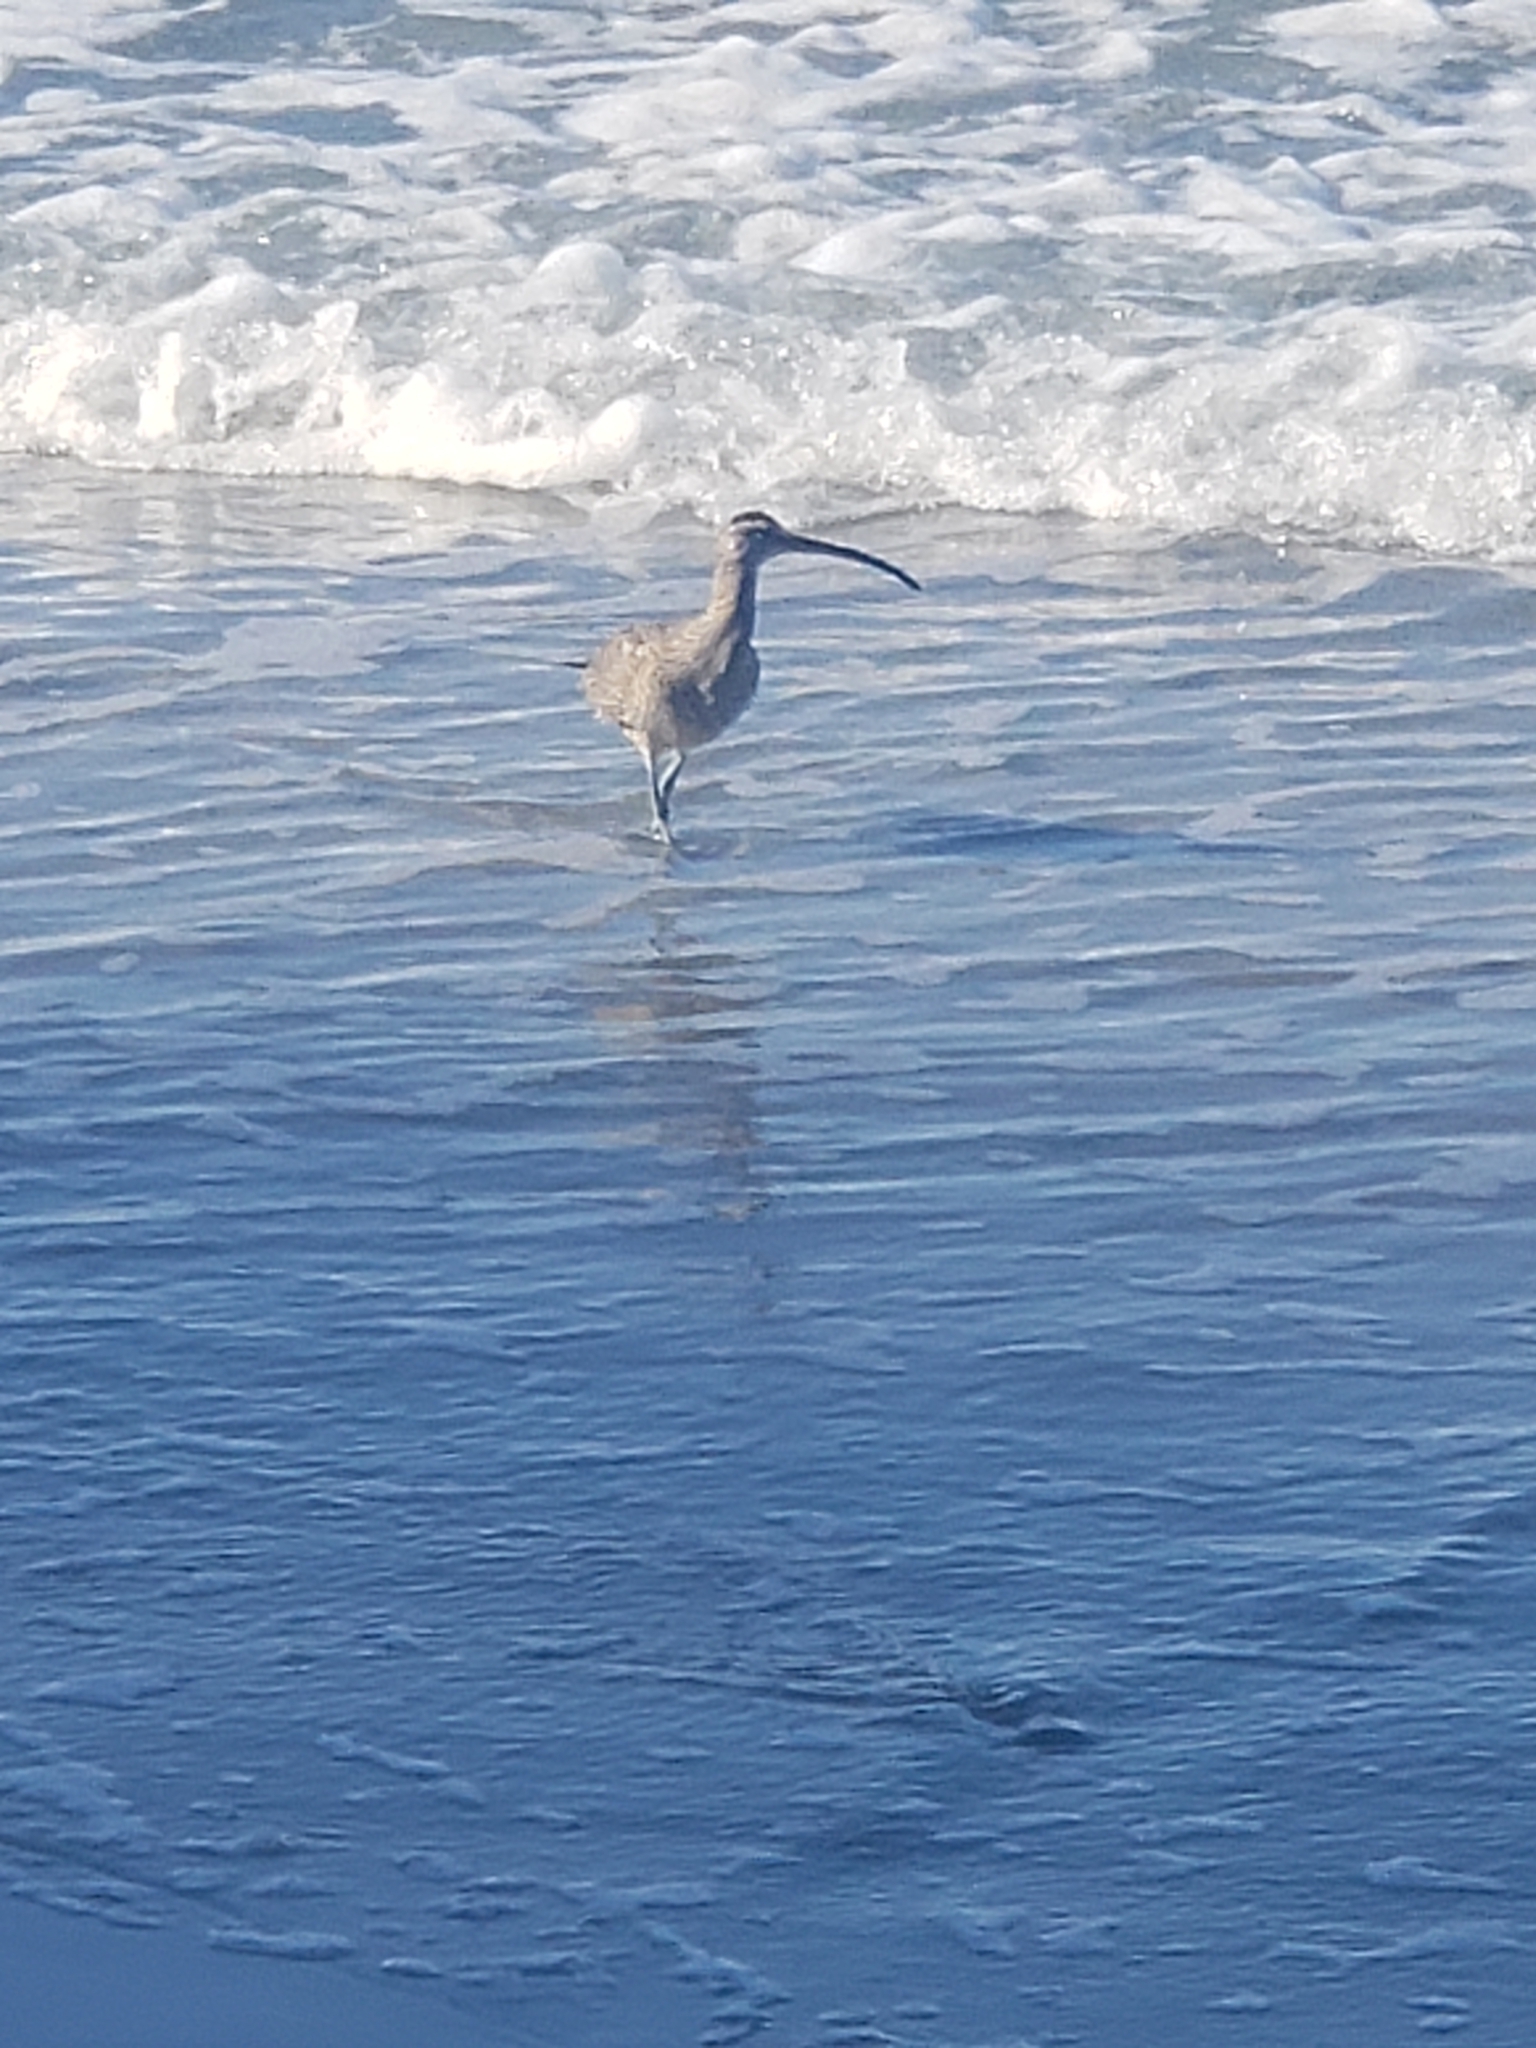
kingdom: Animalia
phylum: Chordata
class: Aves
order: Charadriiformes
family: Scolopacidae
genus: Numenius
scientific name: Numenius phaeopus
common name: Whimbrel
